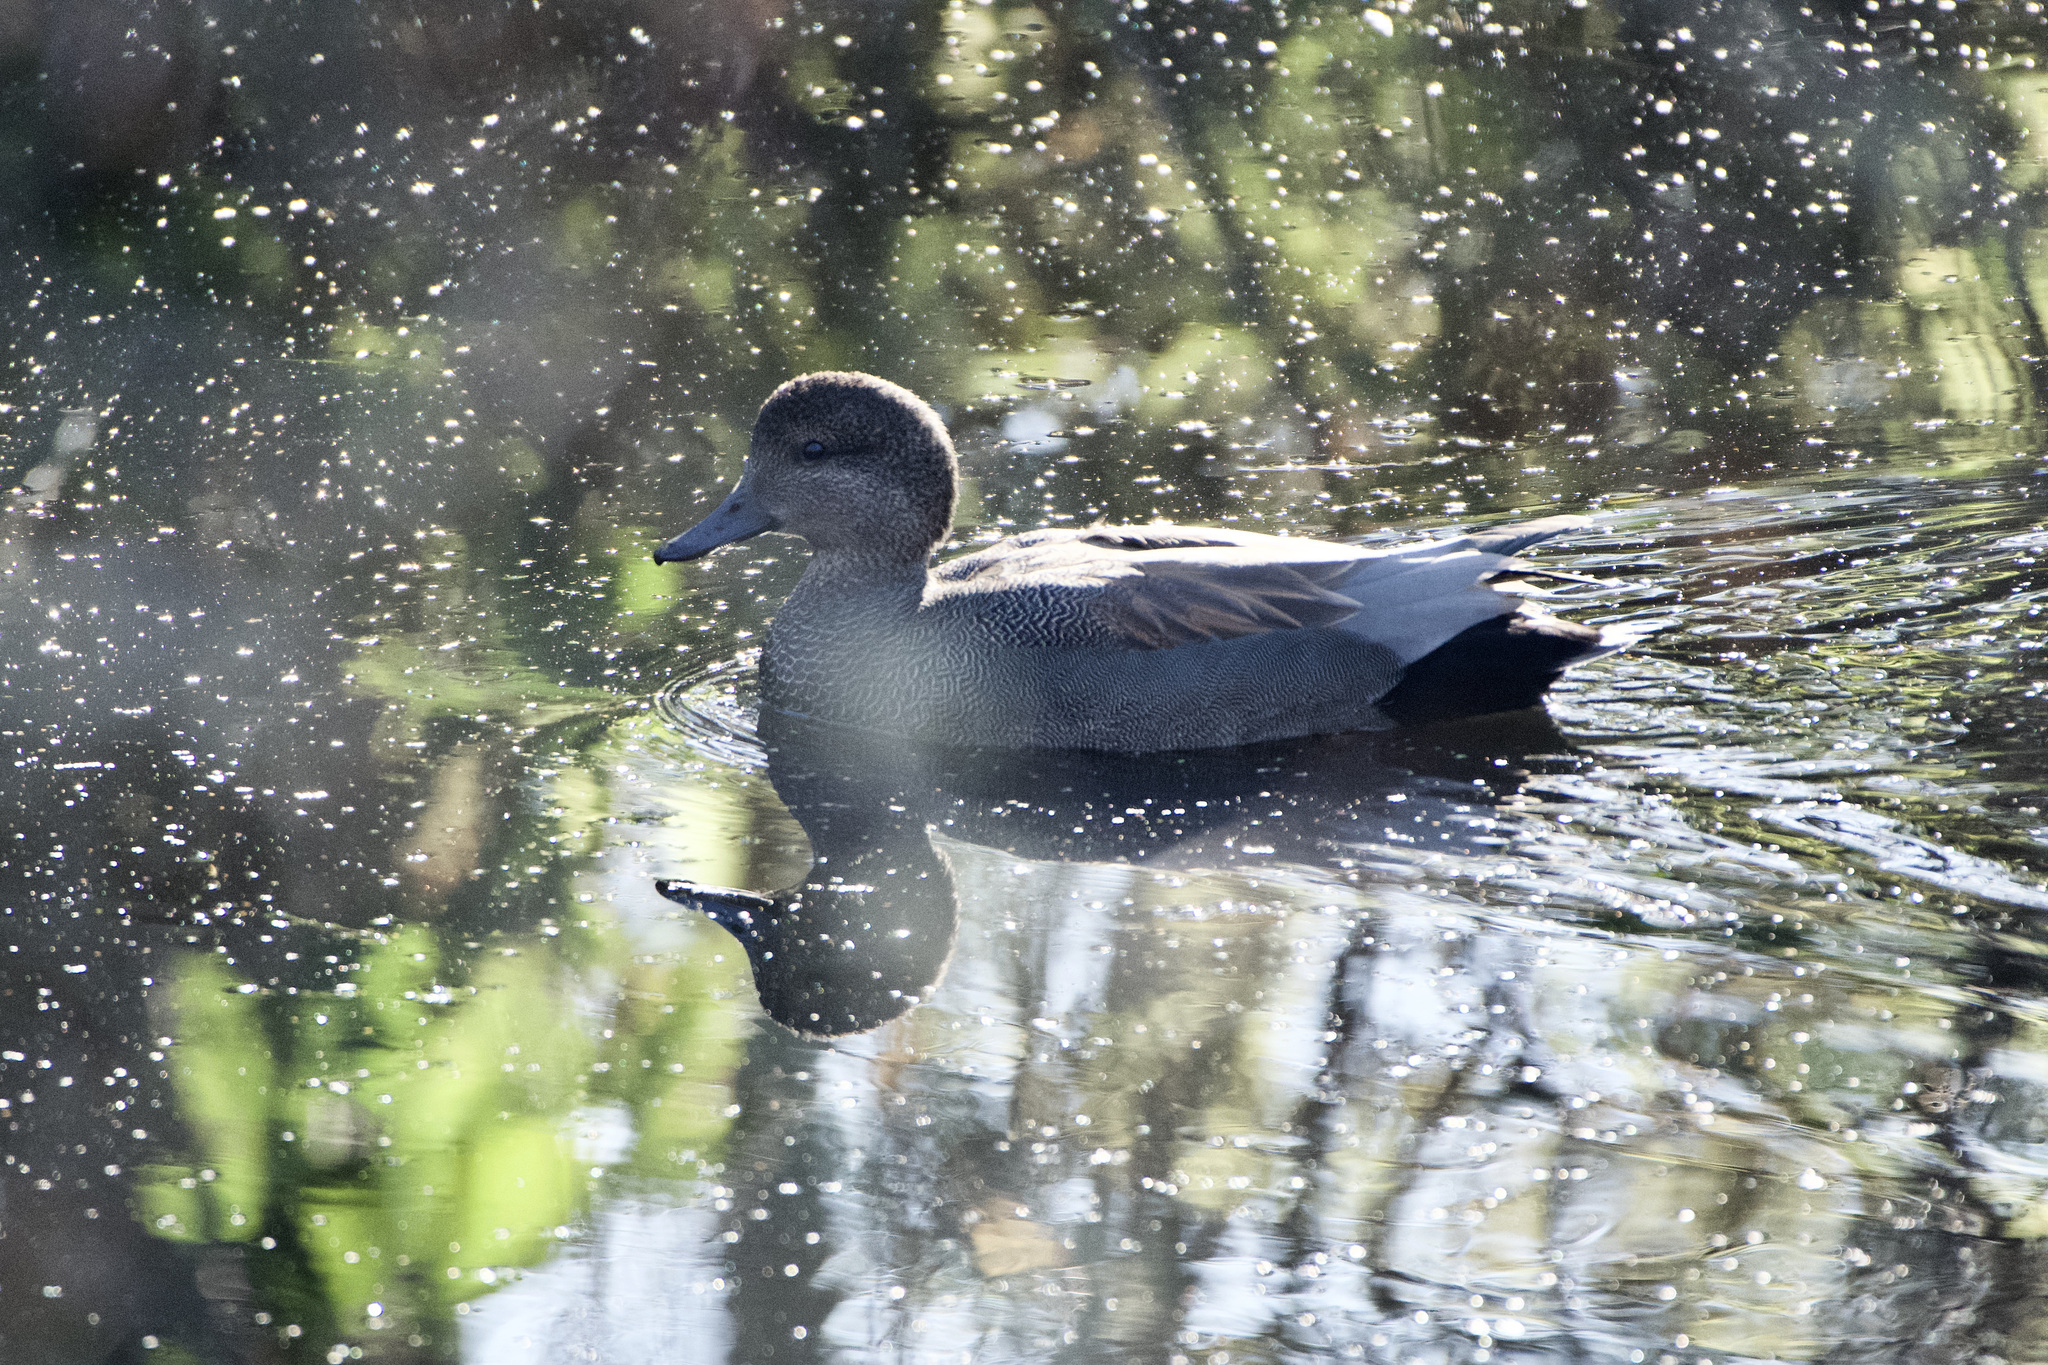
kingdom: Animalia
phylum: Chordata
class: Aves
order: Anseriformes
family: Anatidae
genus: Mareca
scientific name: Mareca strepera
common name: Gadwall
